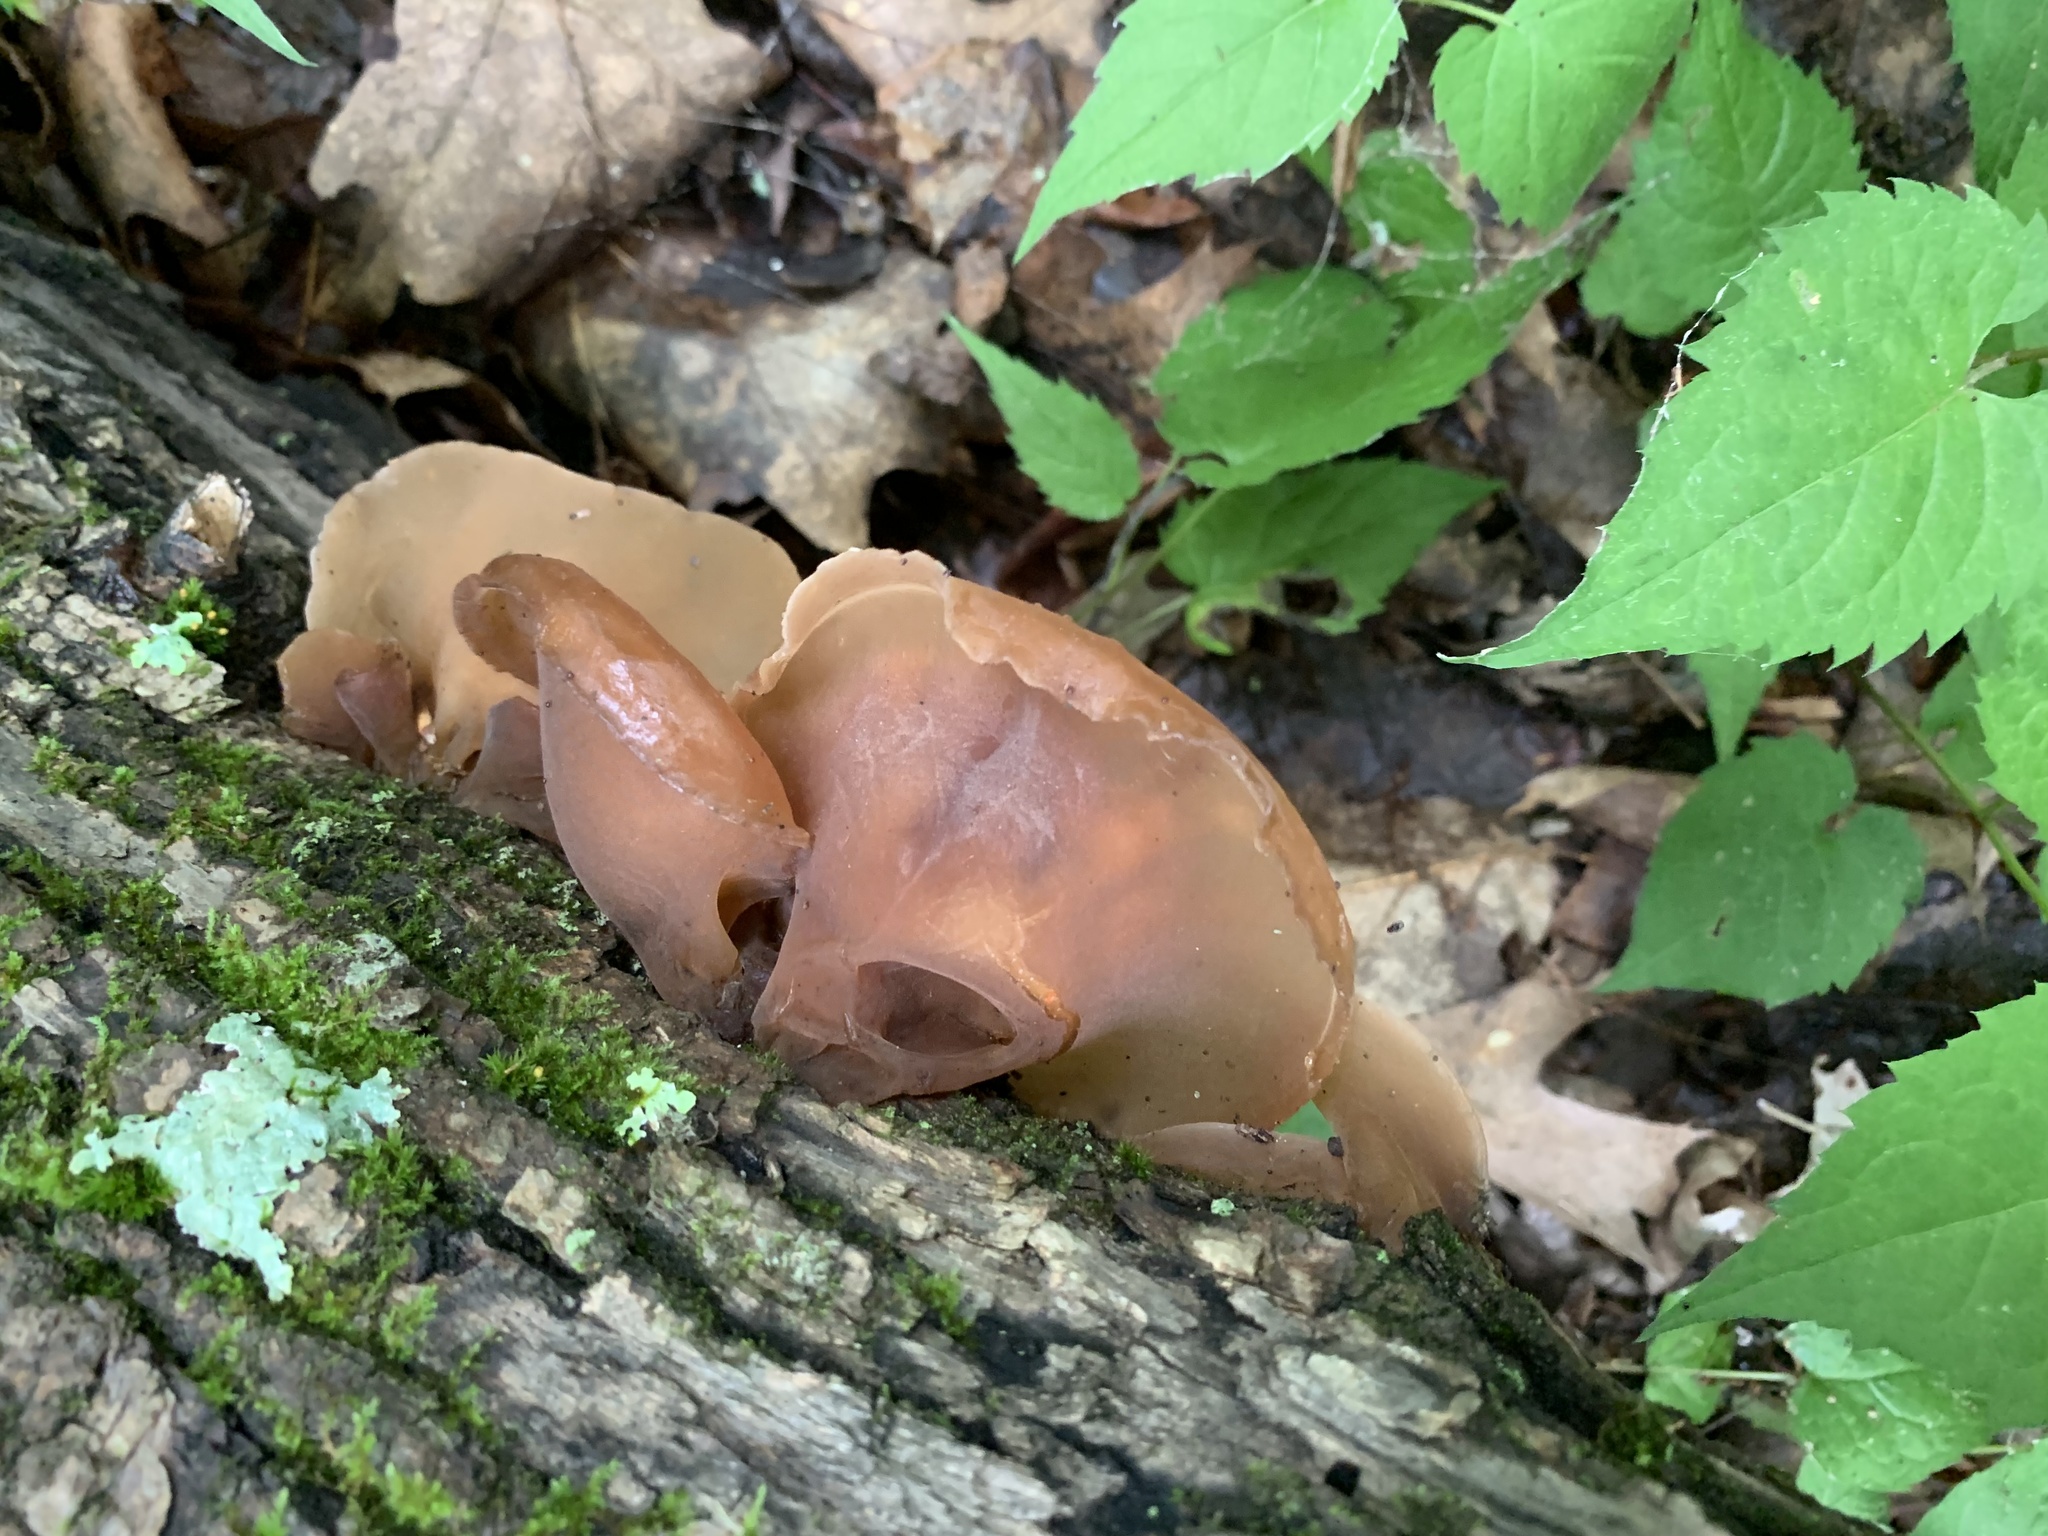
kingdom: Fungi
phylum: Basidiomycota
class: Agaricomycetes
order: Auriculariales
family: Auriculariaceae
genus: Auricularia
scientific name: Auricularia
